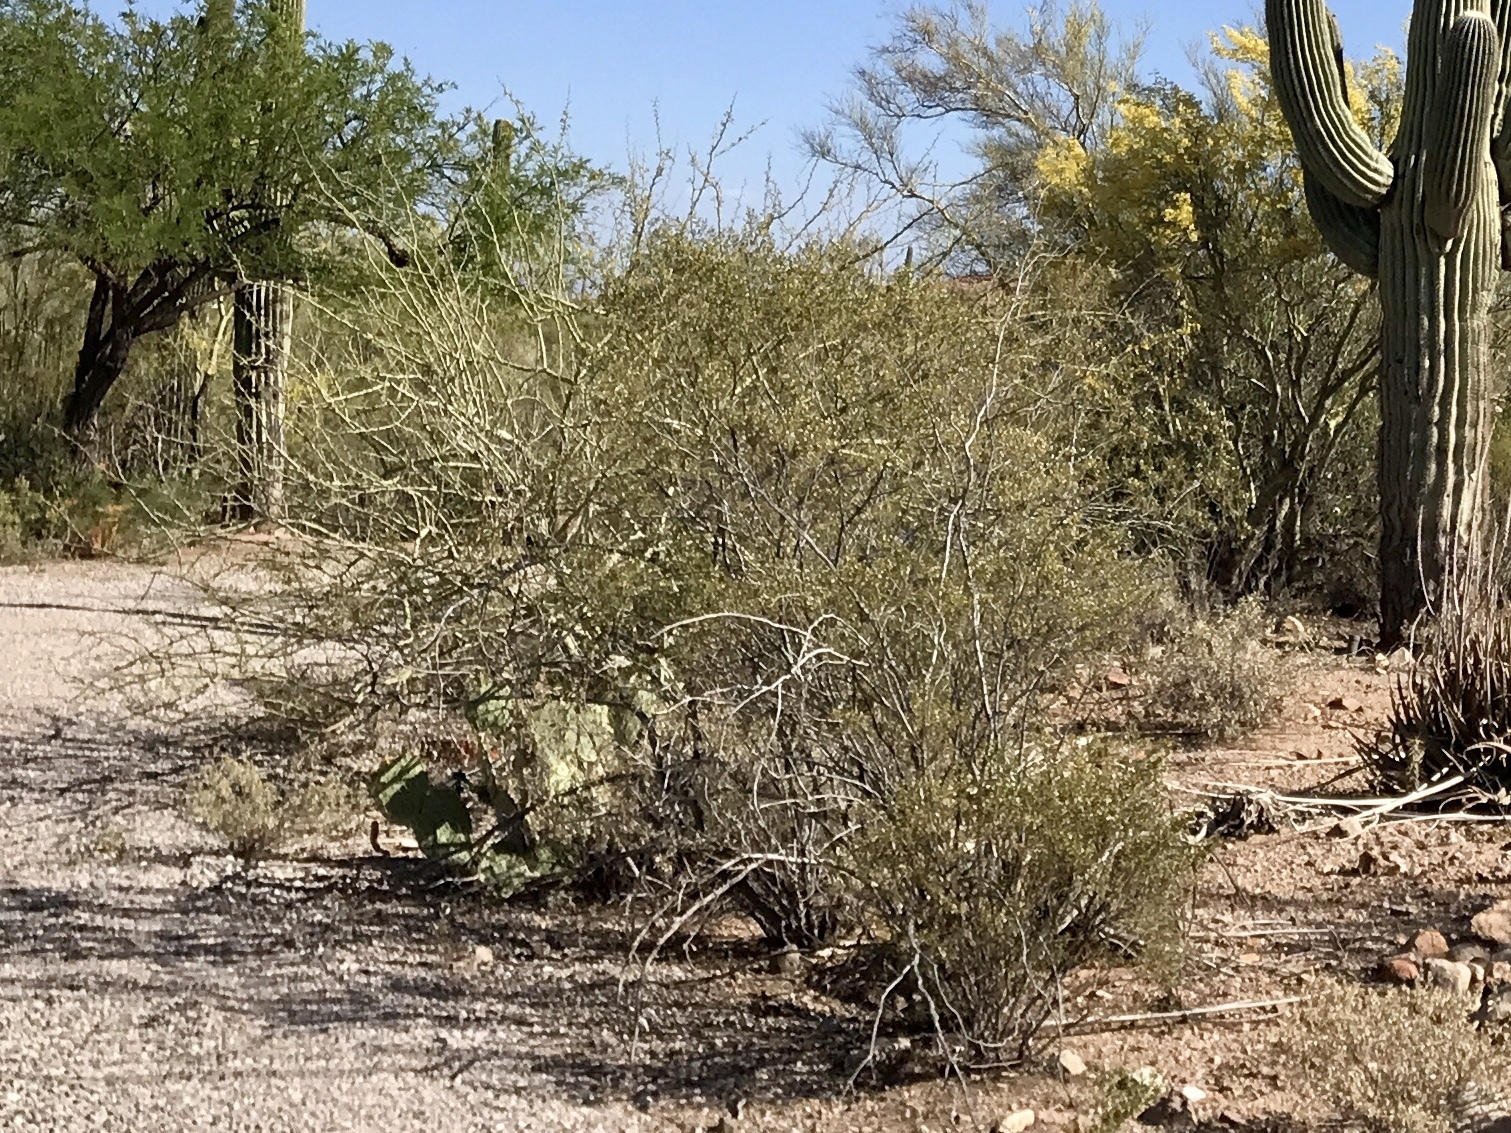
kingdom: Plantae
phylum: Tracheophyta
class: Magnoliopsida
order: Zygophyllales
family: Zygophyllaceae
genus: Larrea
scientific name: Larrea tridentata
